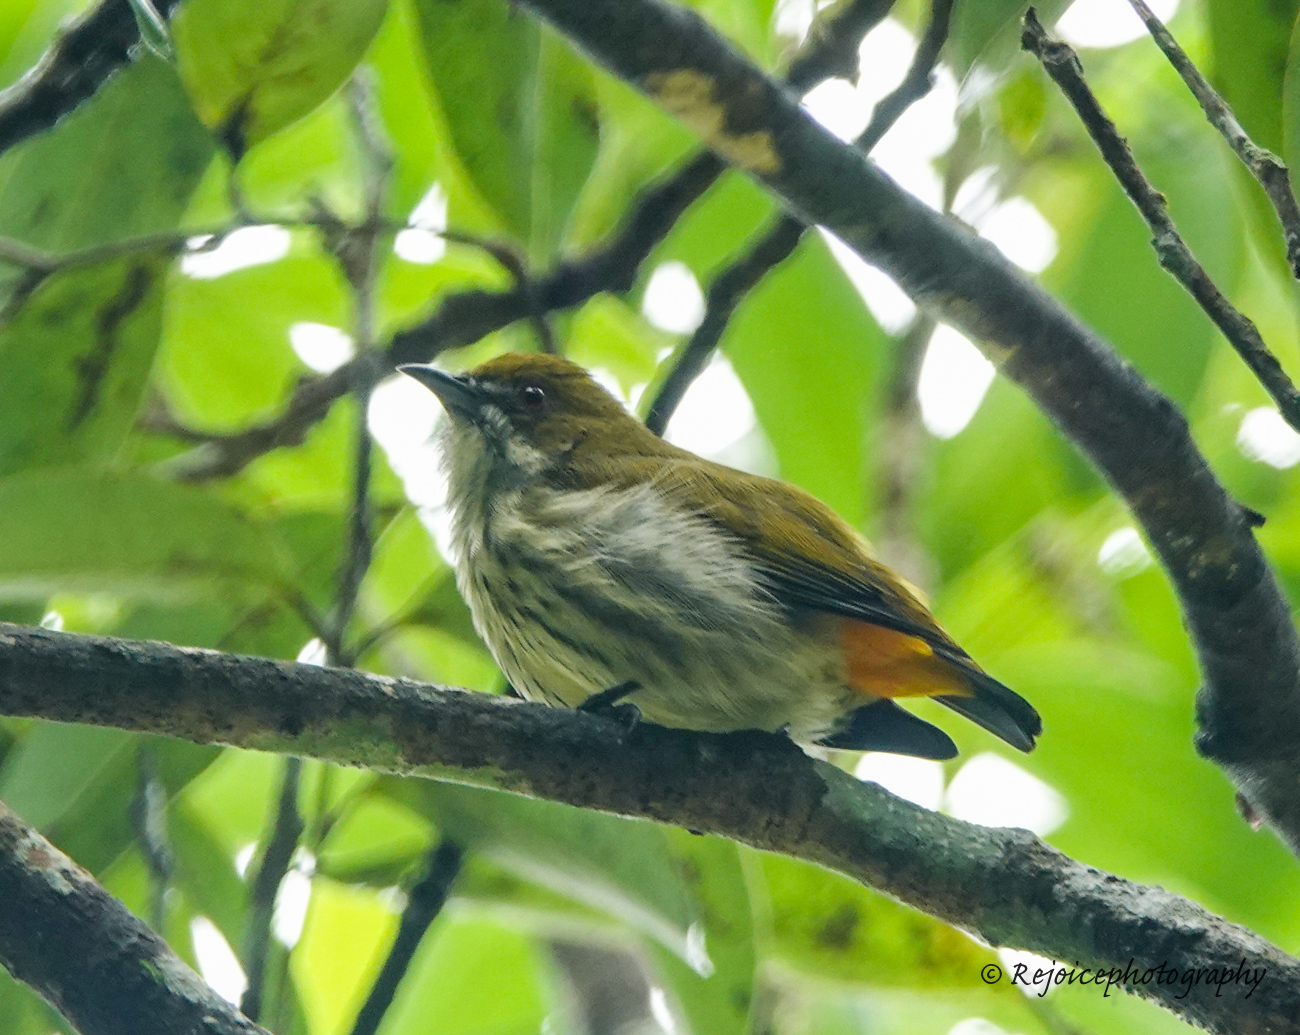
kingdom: Animalia
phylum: Chordata
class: Aves
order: Passeriformes
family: Dicaeidae
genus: Dicaeum
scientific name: Dicaeum chrysorrheum
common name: Yellow-vented flowerpecker
